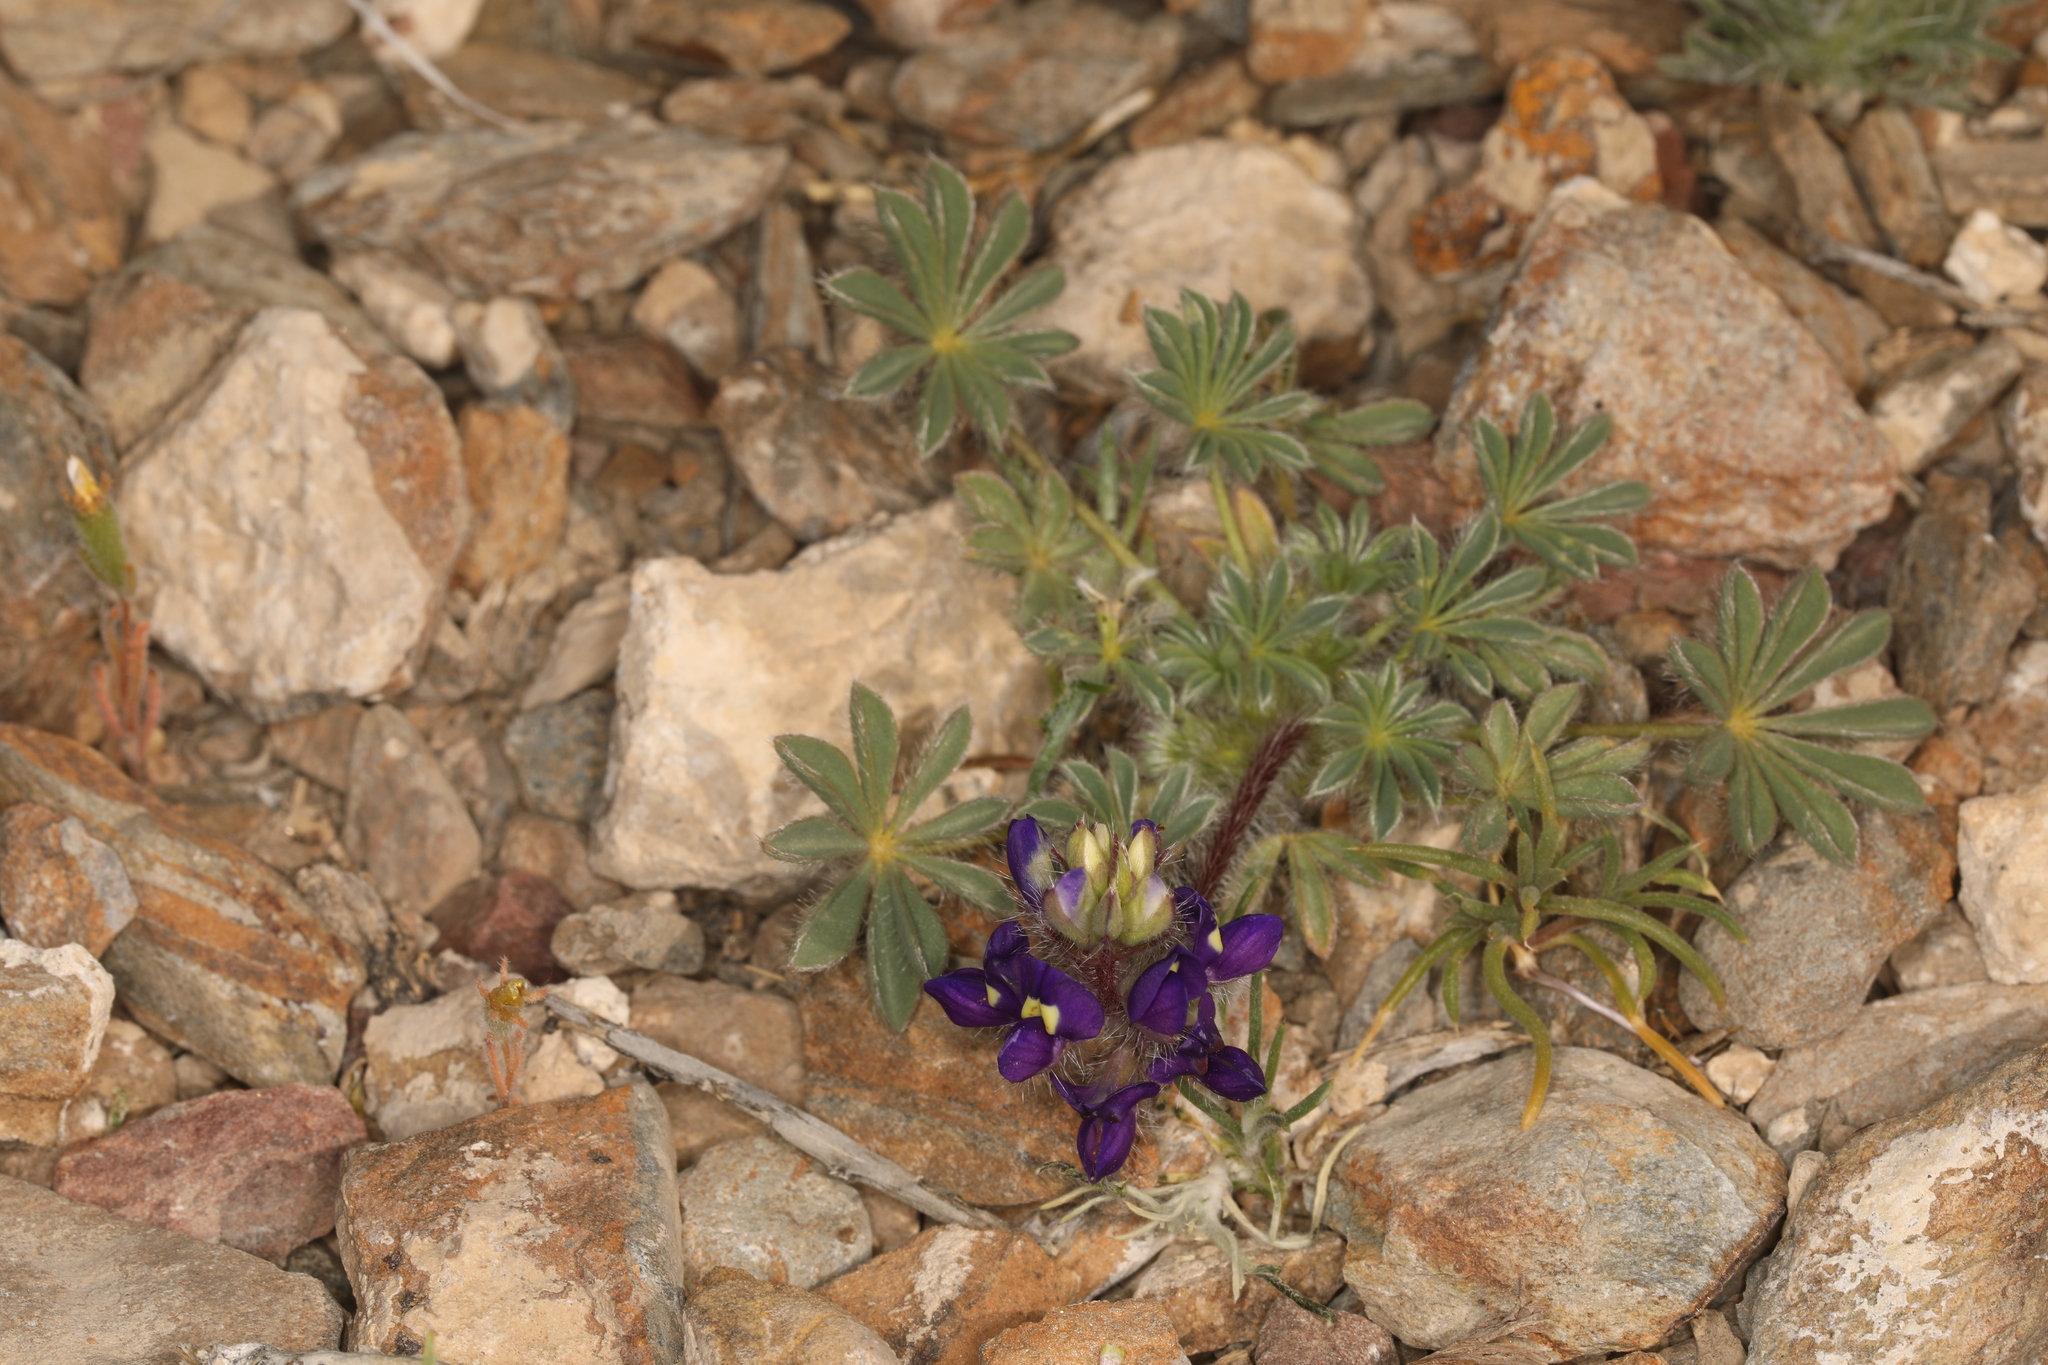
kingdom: Plantae
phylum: Tracheophyta
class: Magnoliopsida
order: Fabales
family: Fabaceae
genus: Lupinus
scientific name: Lupinus flavoculatus
